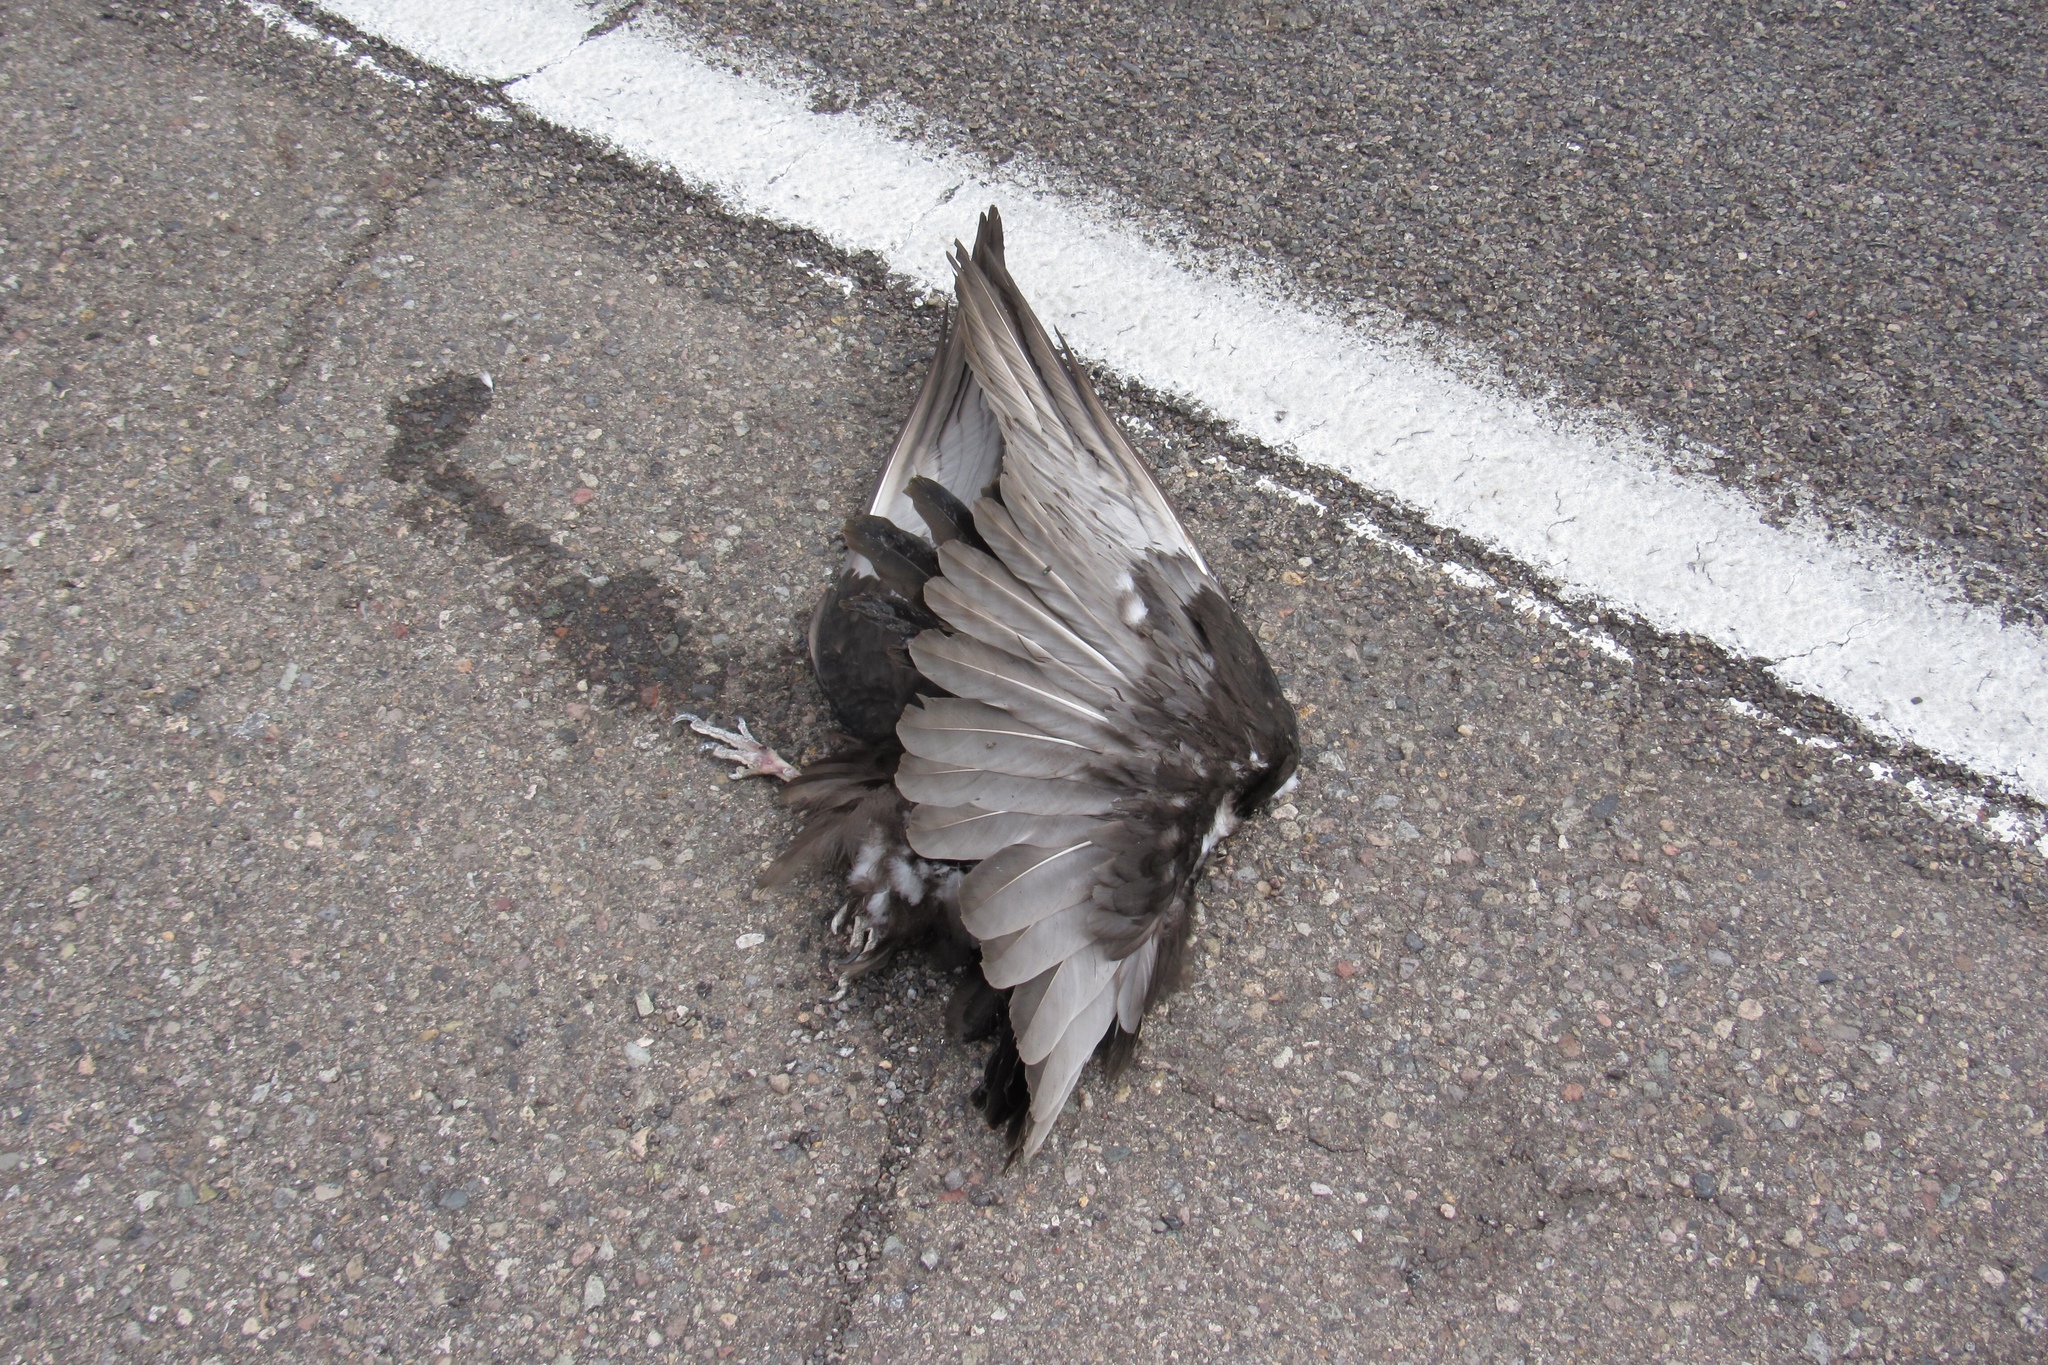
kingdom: Animalia
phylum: Chordata
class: Aves
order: Accipitriformes
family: Cathartidae
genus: Cathartes
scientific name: Cathartes aura
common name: Turkey vulture
